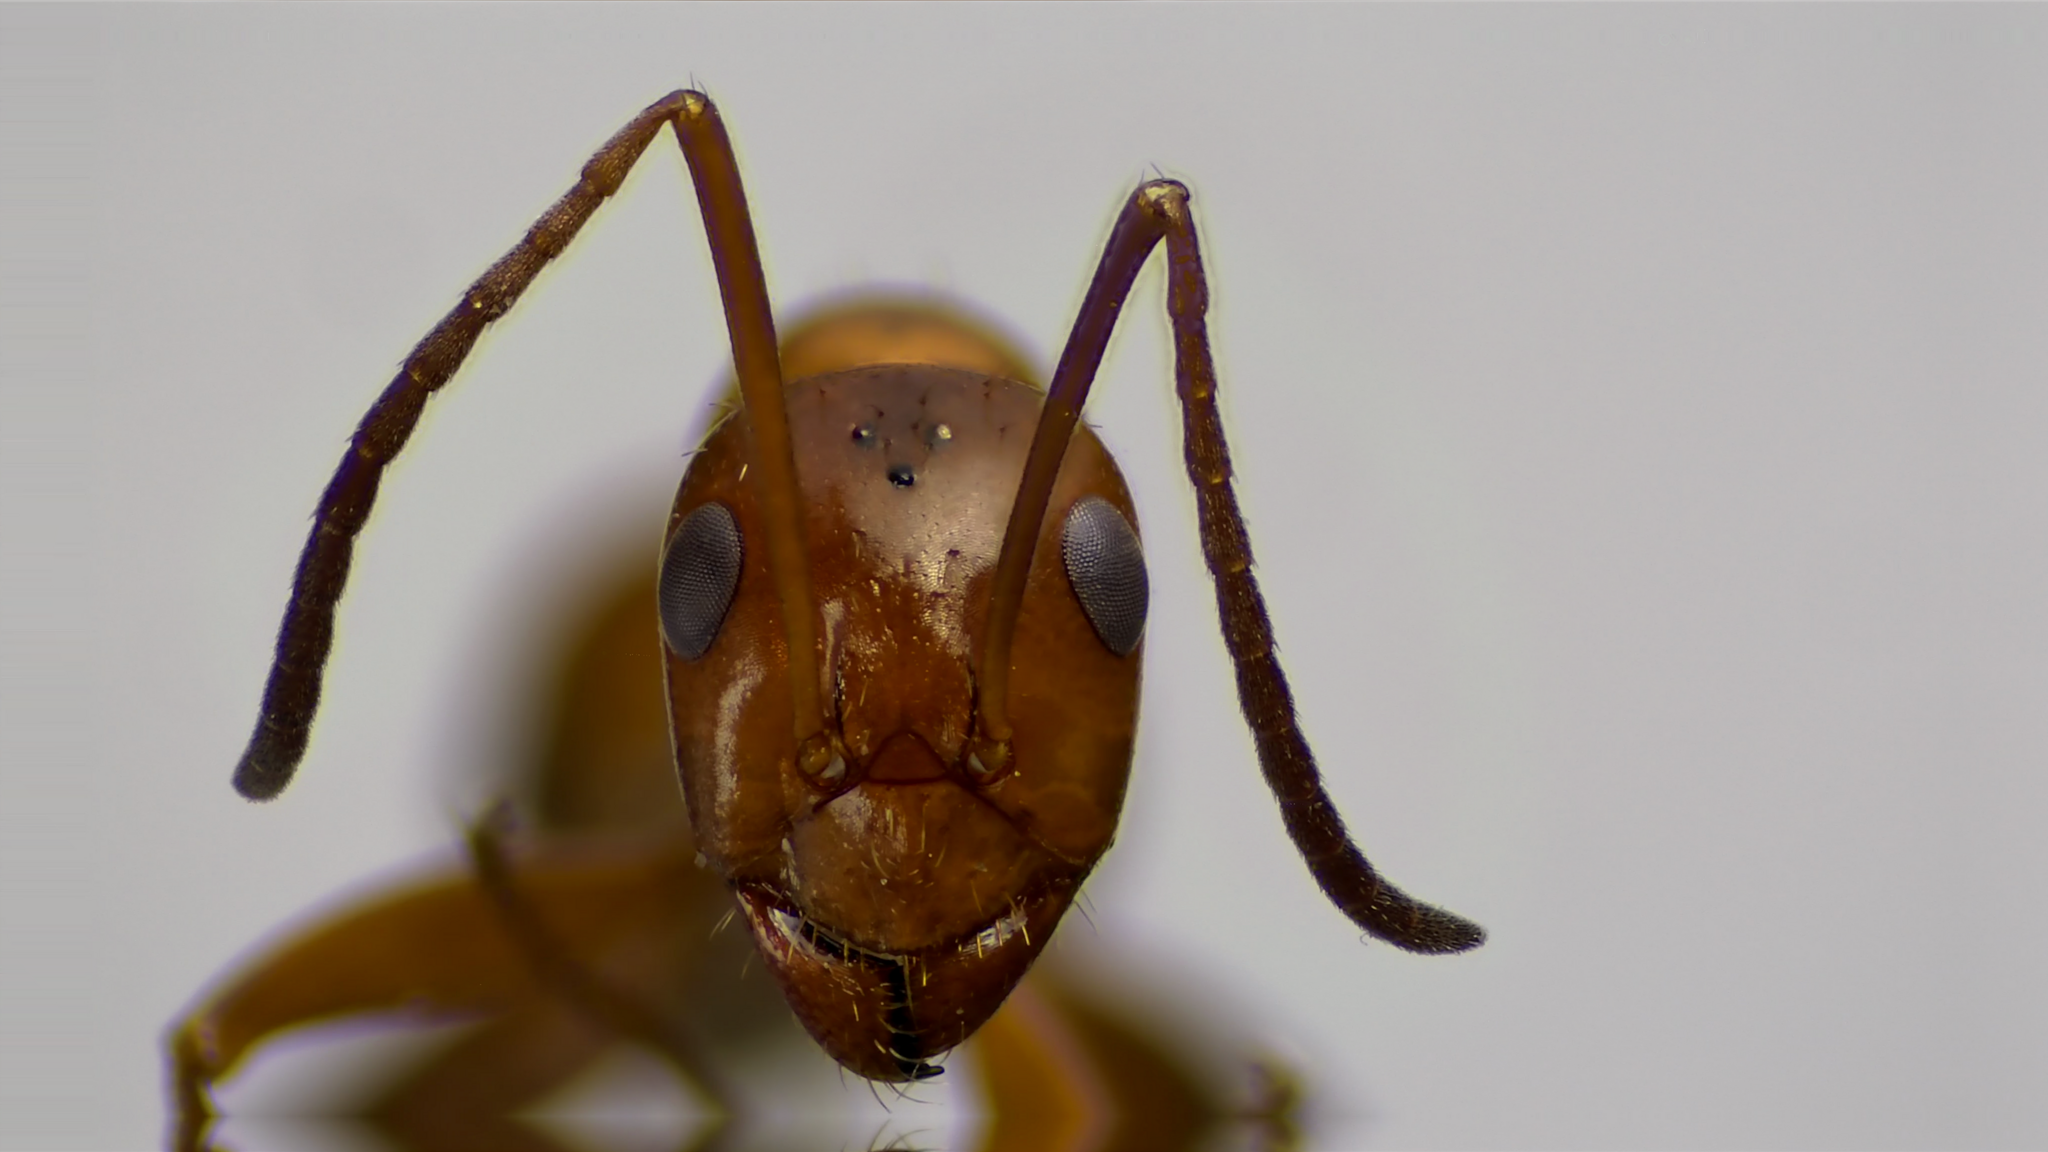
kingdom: Animalia
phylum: Arthropoda
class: Insecta
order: Hymenoptera
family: Formicidae
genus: Formica
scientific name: Formica incerta
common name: Uncertain field ant
